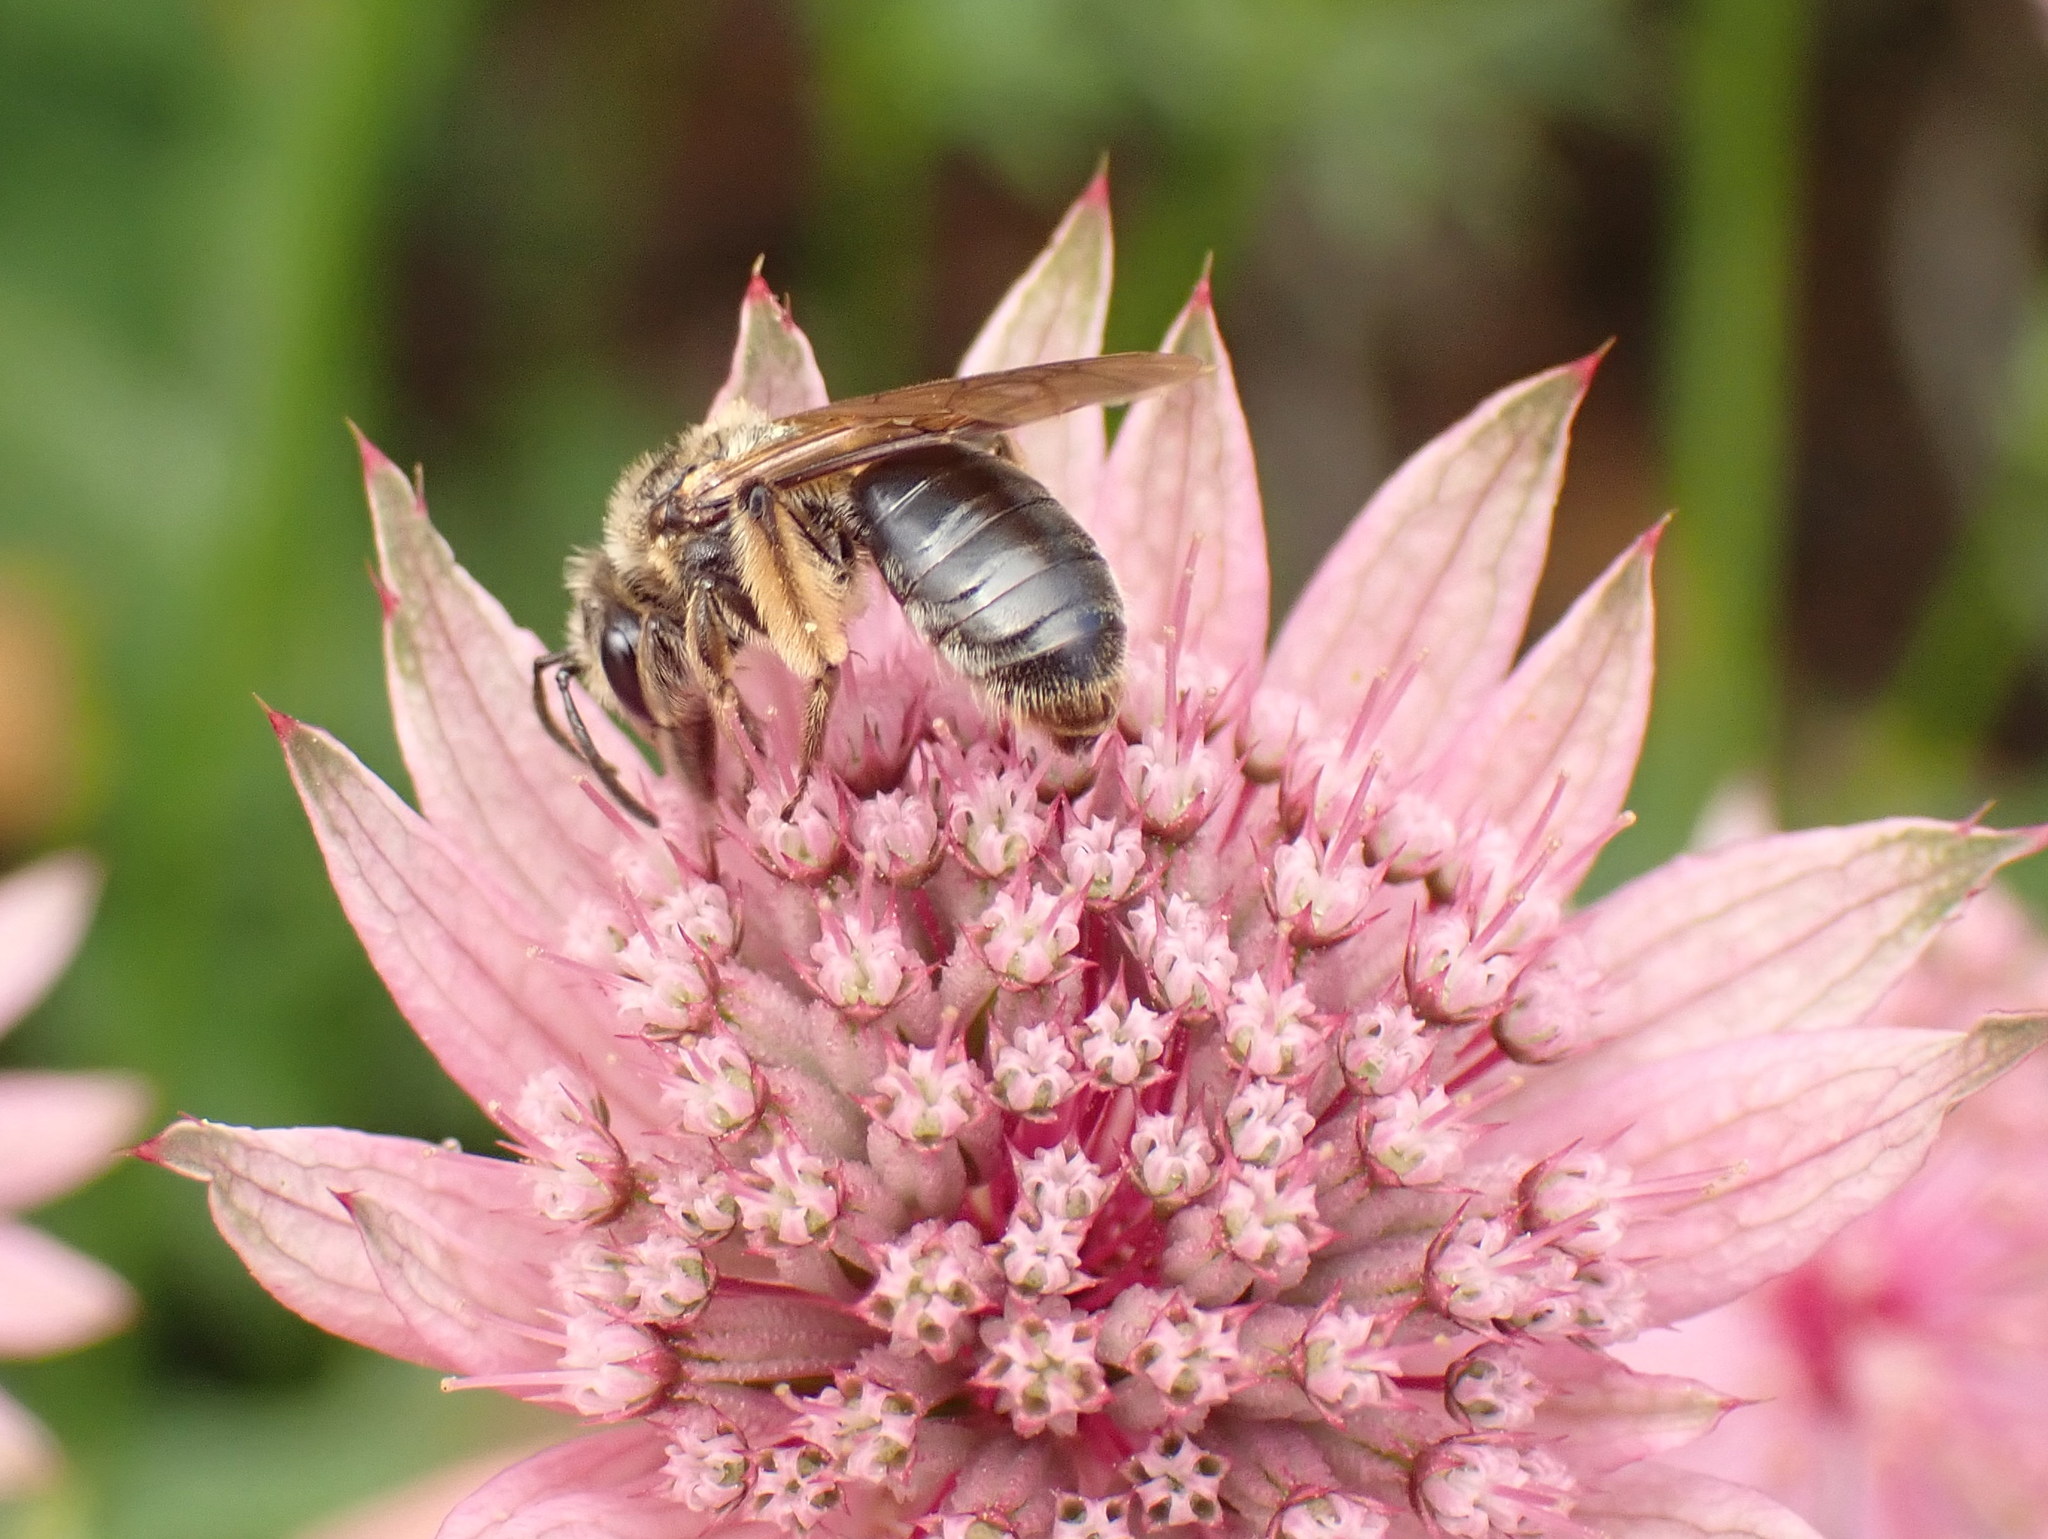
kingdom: Animalia
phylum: Arthropoda
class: Insecta
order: Hymenoptera
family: Andrenidae
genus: Andrena
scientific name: Andrena crataegi
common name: Hawthorn mining bee
